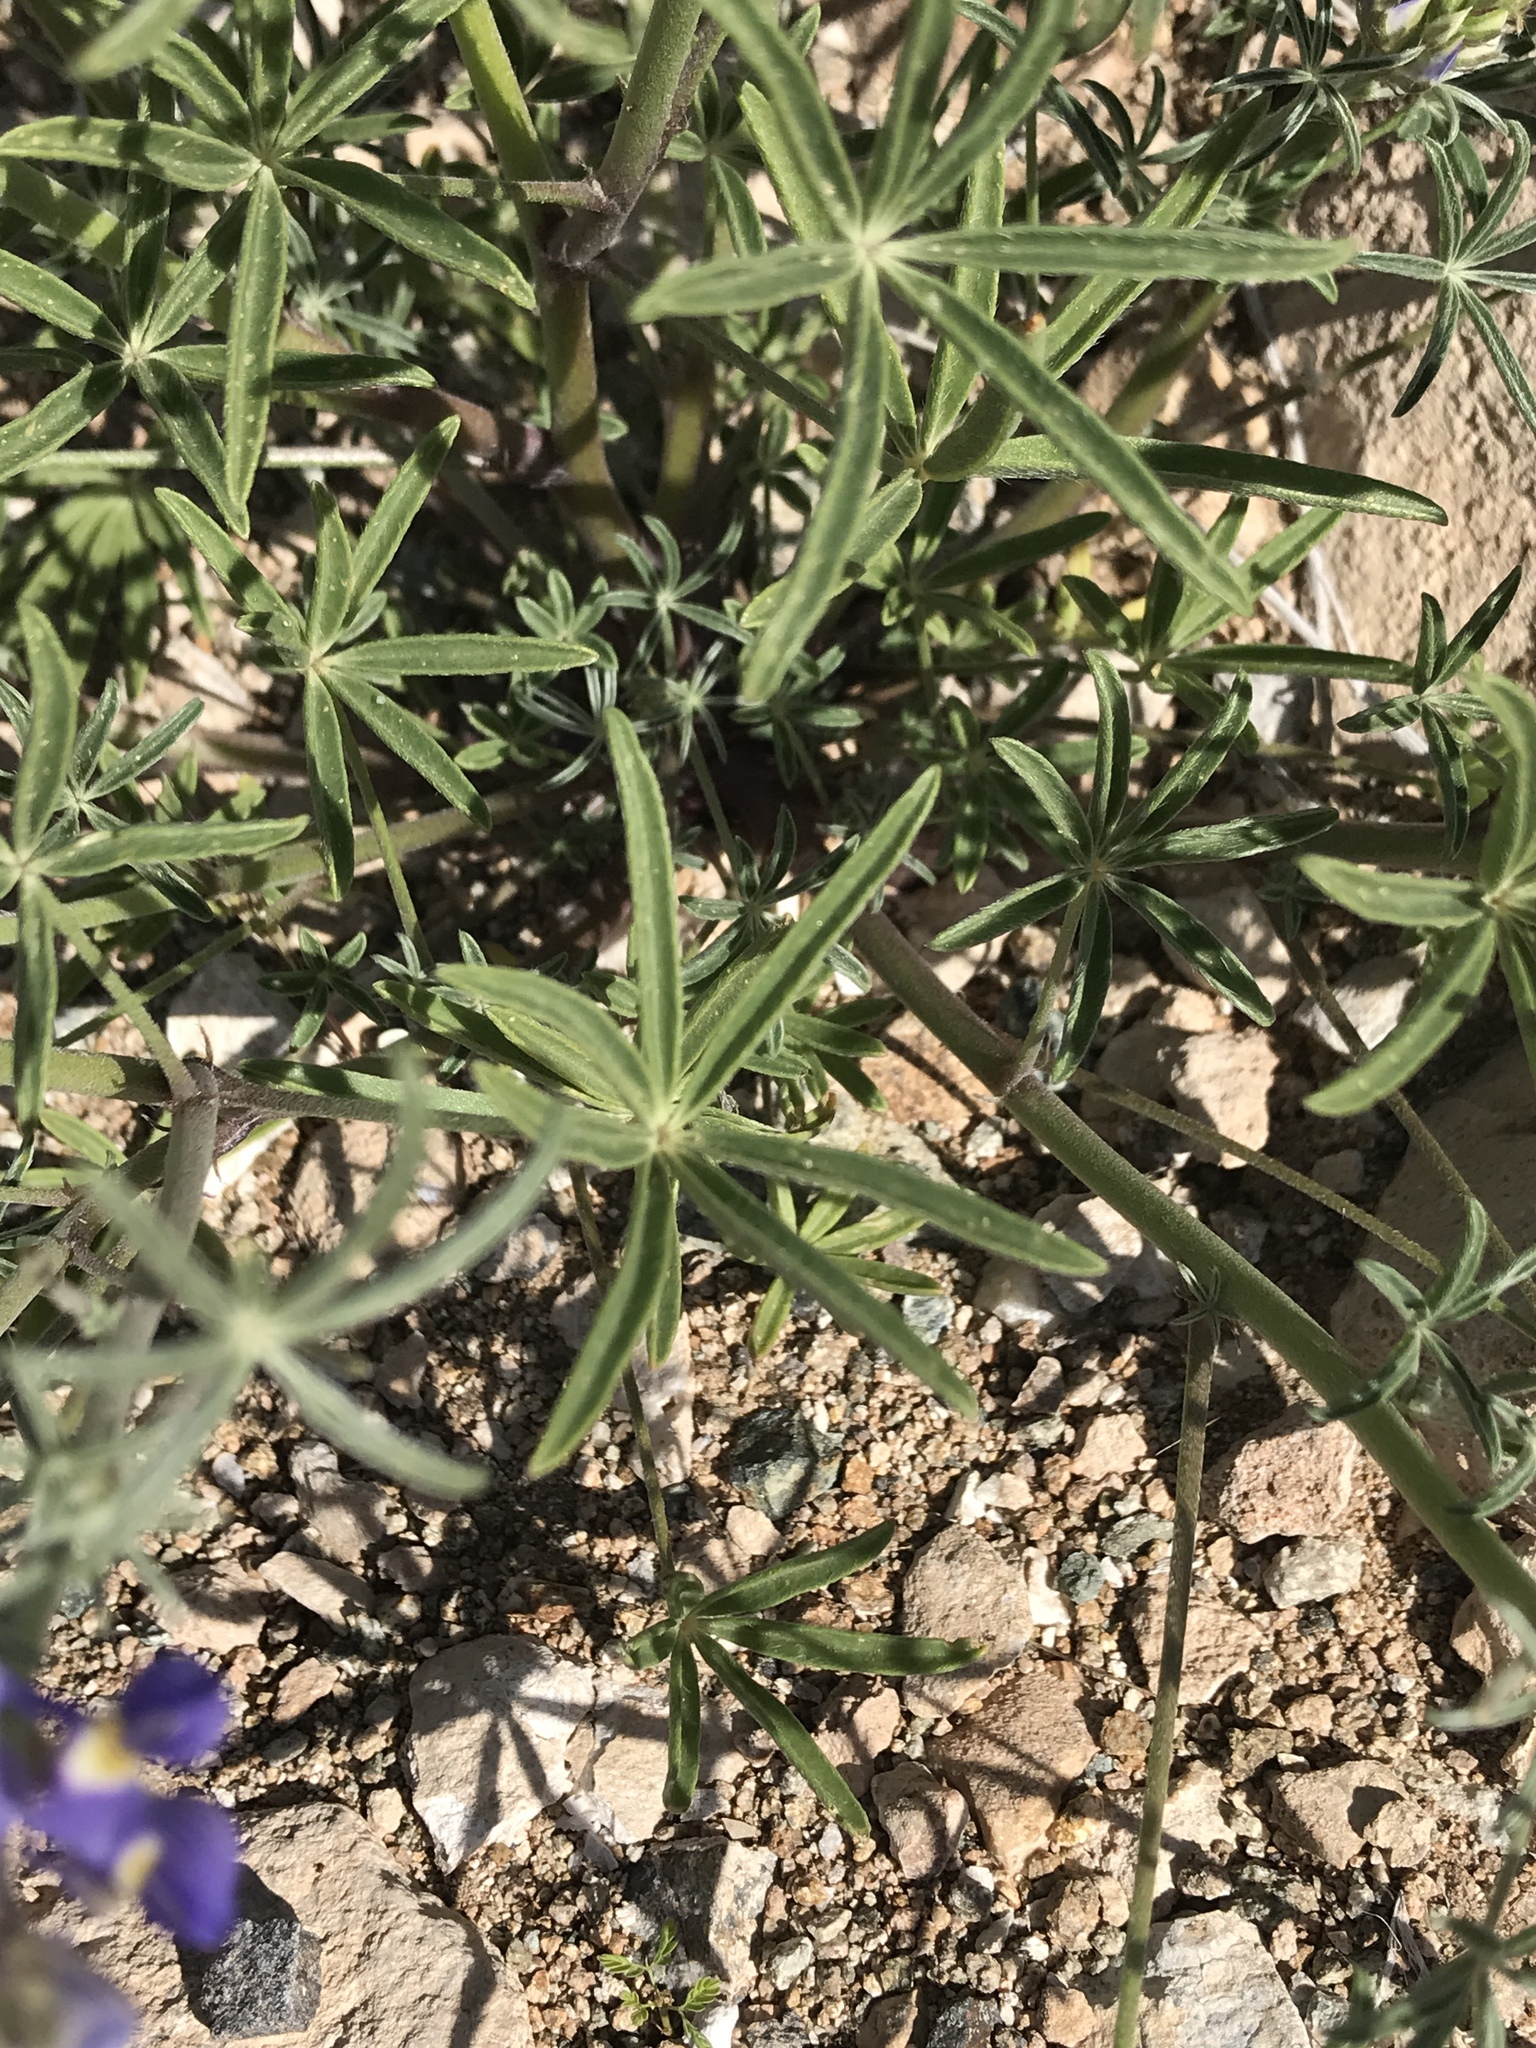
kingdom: Plantae
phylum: Tracheophyta
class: Magnoliopsida
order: Fabales
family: Fabaceae
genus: Lupinus
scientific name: Lupinus sparsiflorus
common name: Coulter's lupine
